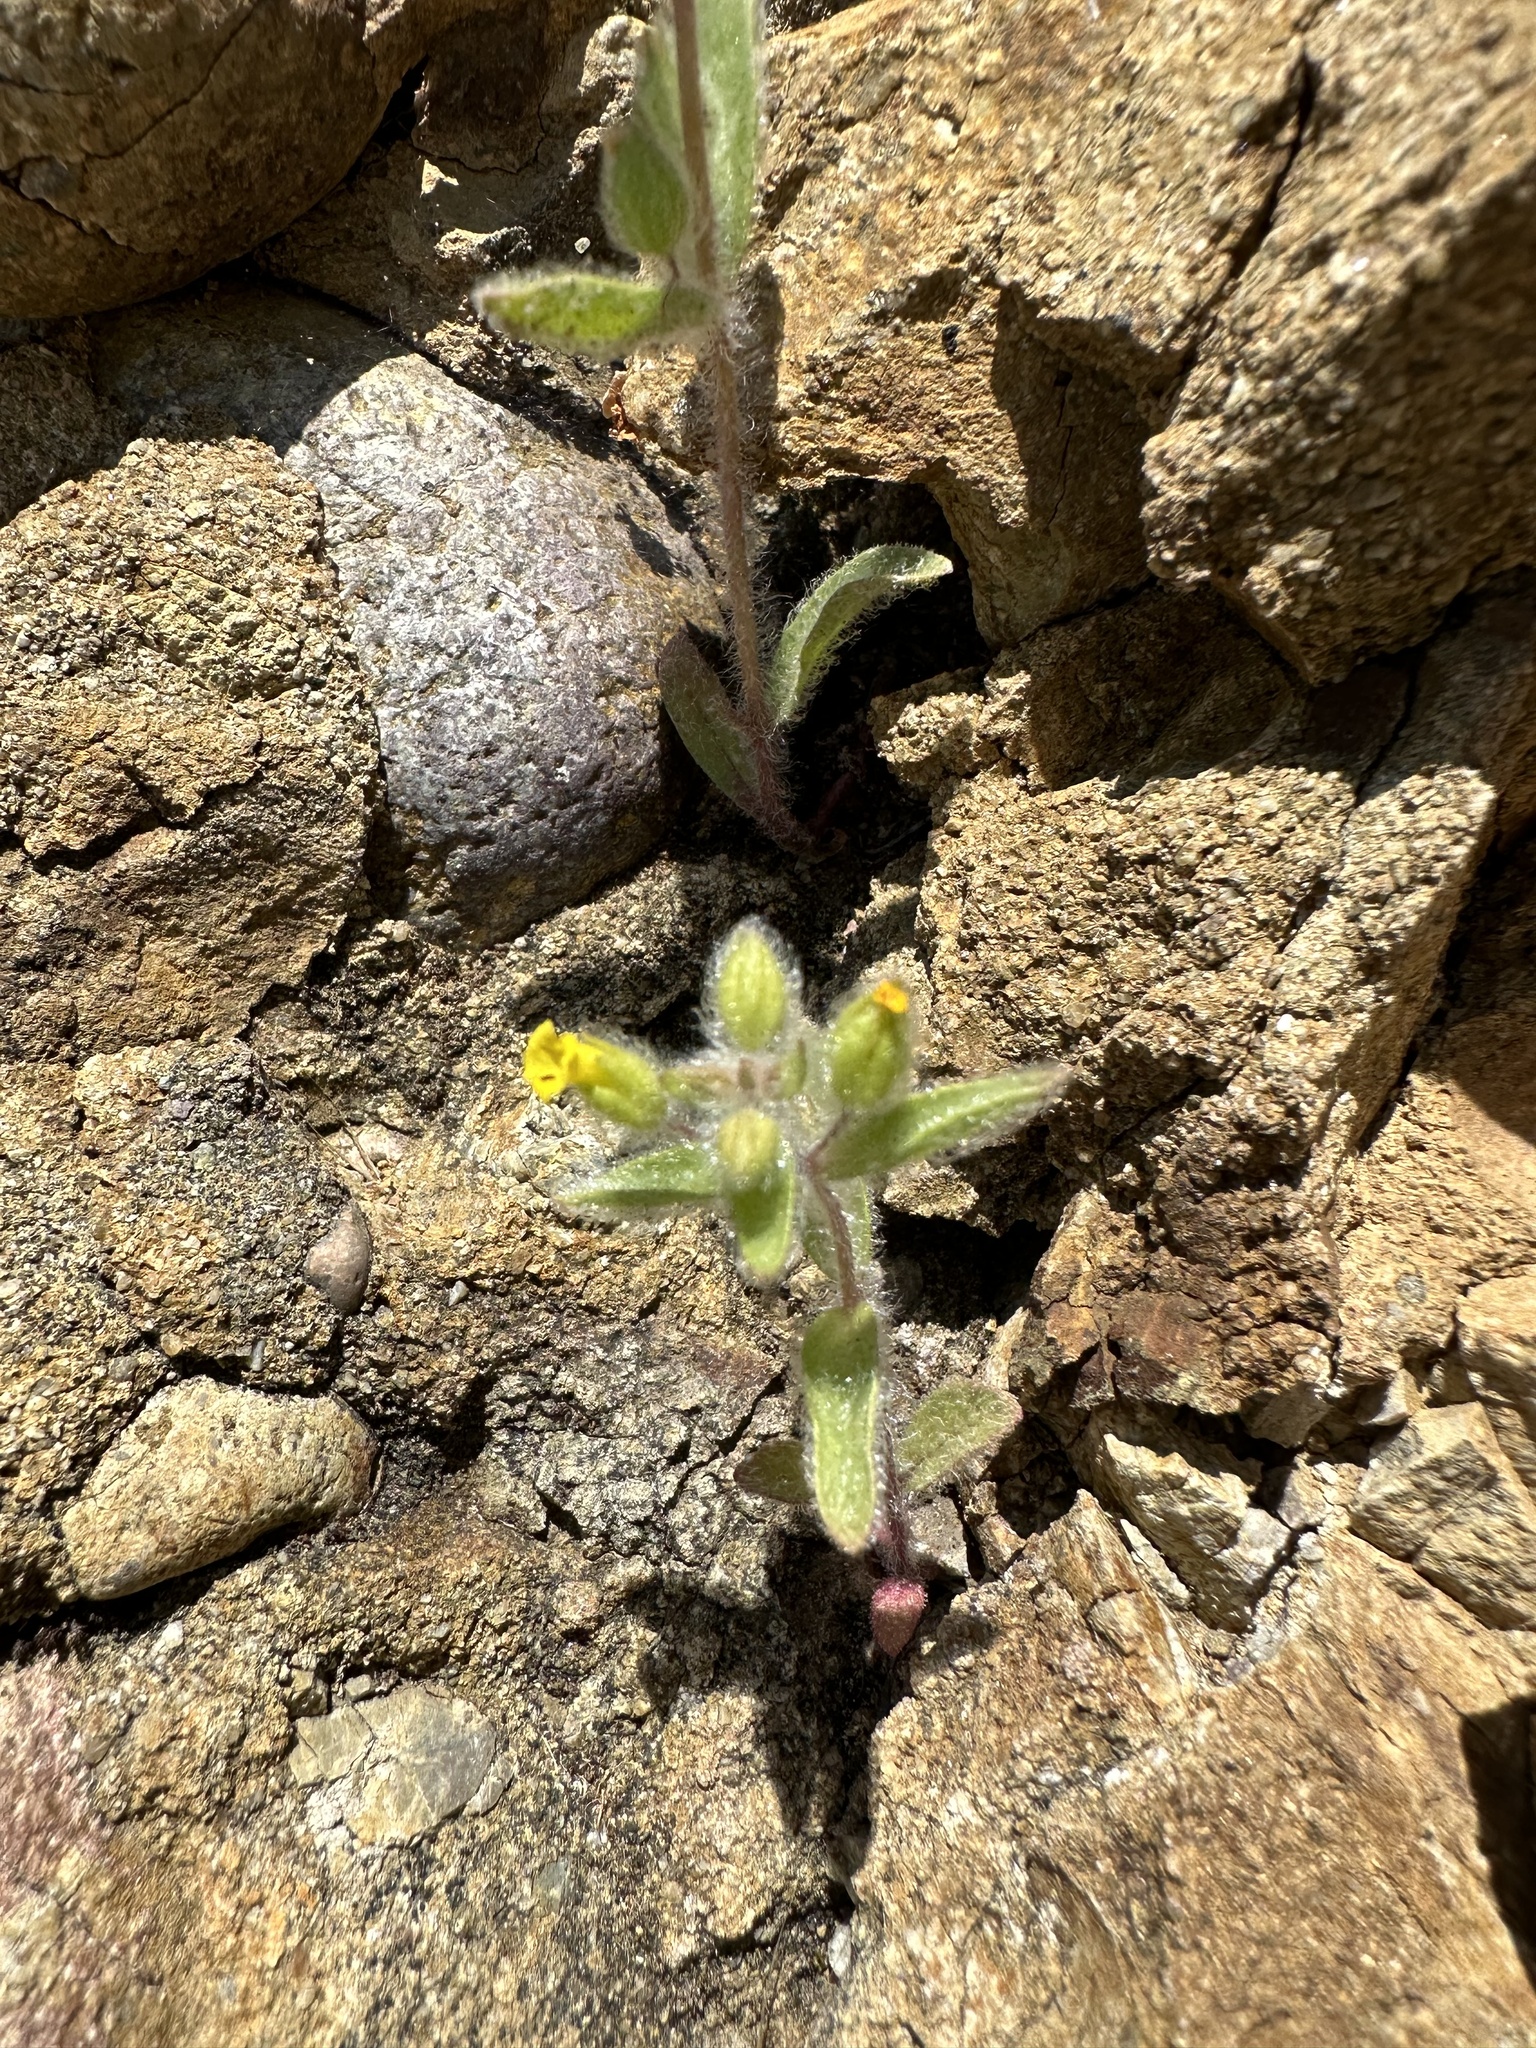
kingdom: Plantae
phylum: Tracheophyta
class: Magnoliopsida
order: Lamiales
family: Phrymaceae
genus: Mimetanthe
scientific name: Mimetanthe pilosa
